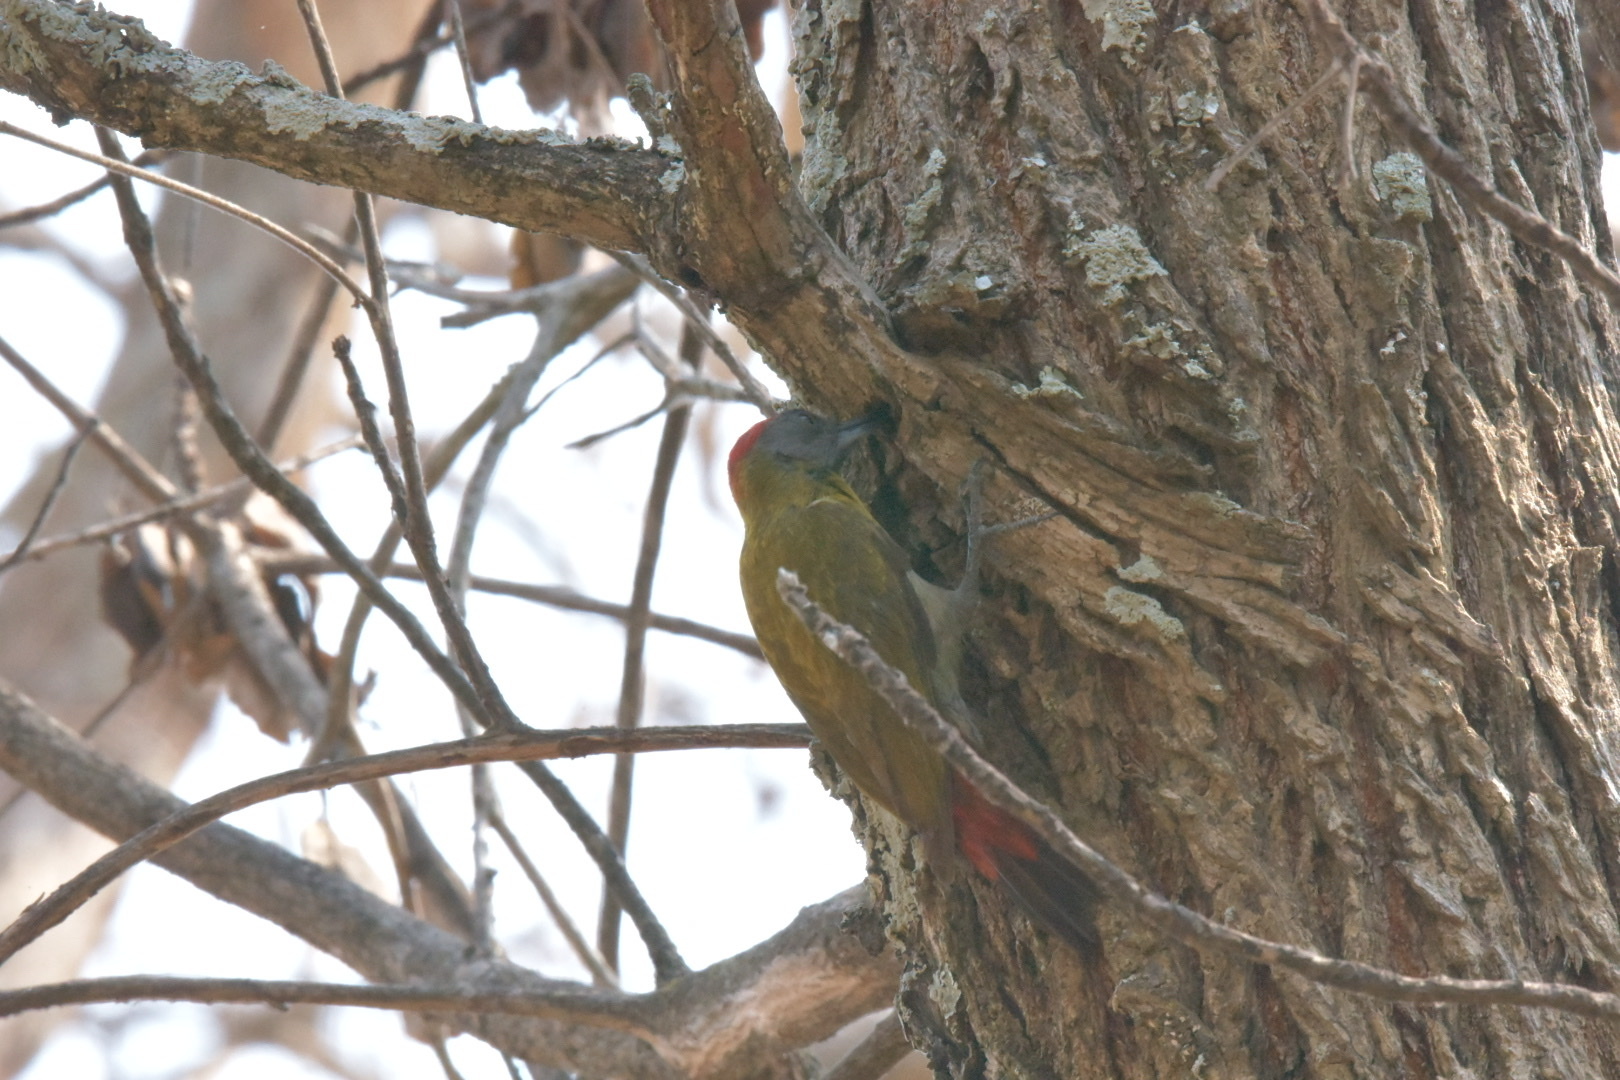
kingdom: Animalia
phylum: Chordata
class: Aves
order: Piciformes
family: Picidae
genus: Dendropicos
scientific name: Dendropicos griseocephalus
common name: Olive woodpecker
